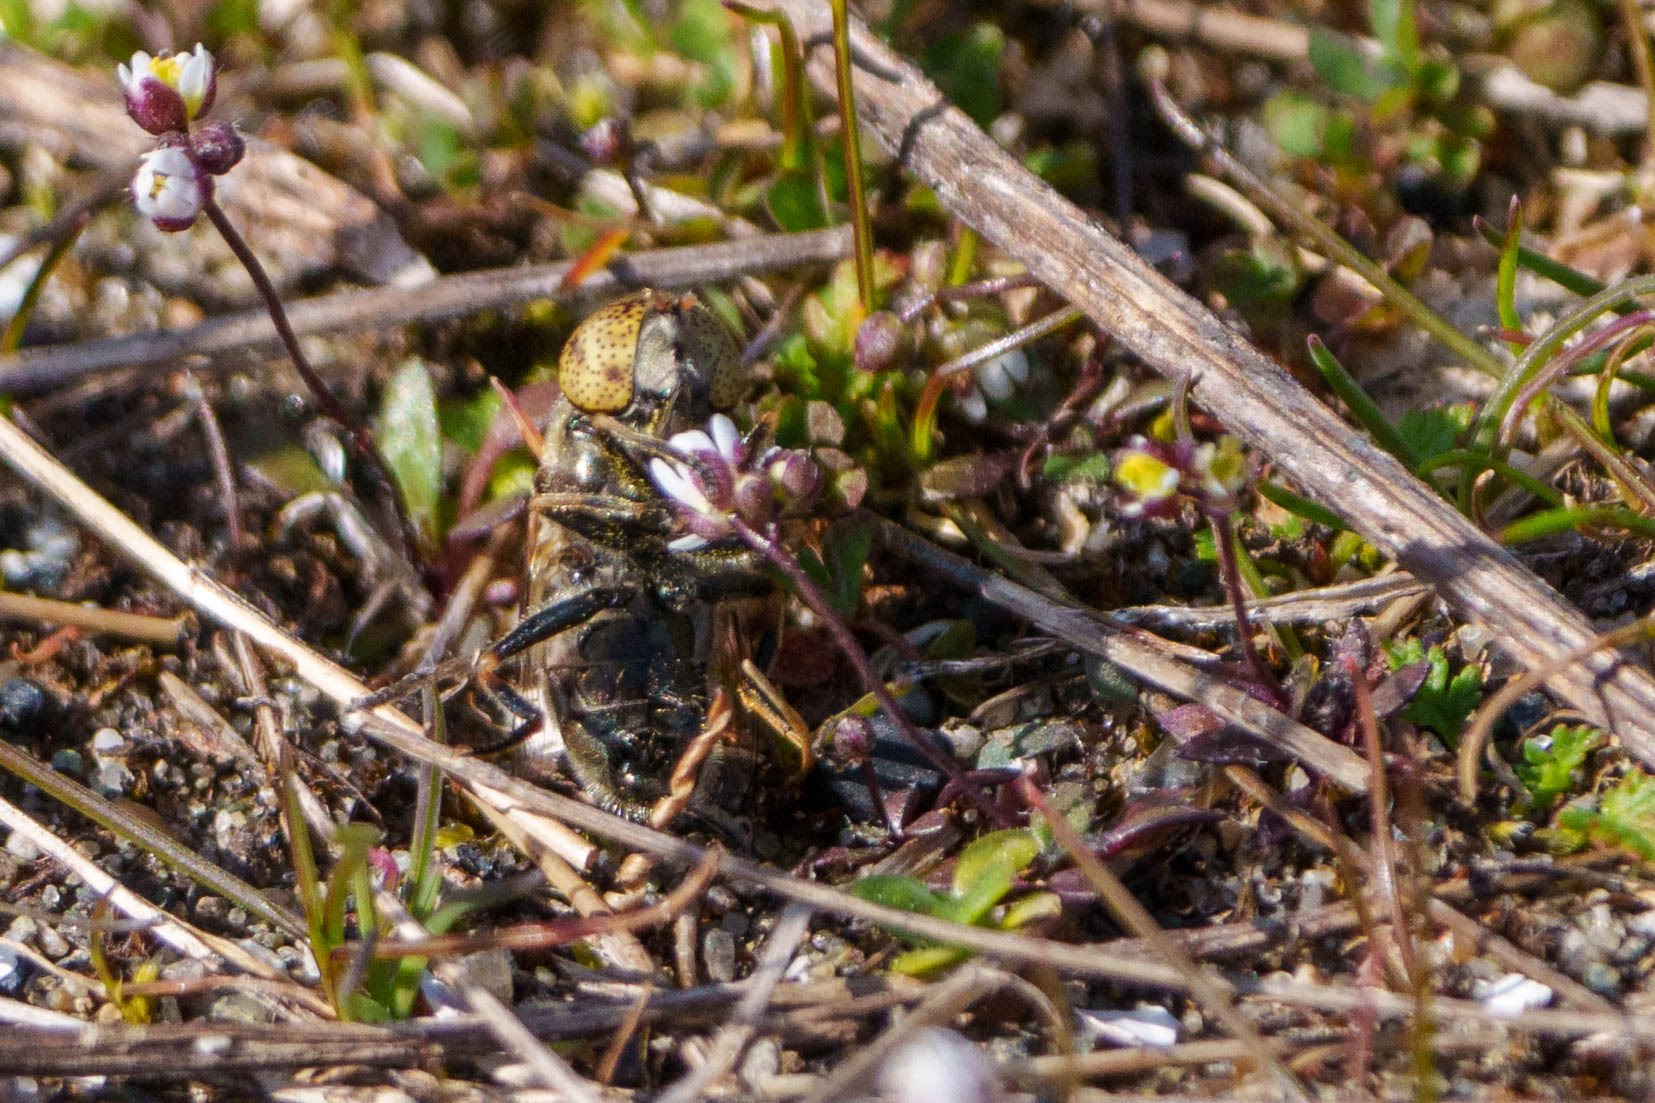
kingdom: Animalia
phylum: Arthropoda
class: Insecta
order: Diptera
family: Syrphidae
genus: Eristalinus
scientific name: Eristalinus aeneus
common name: Syrphid fly
